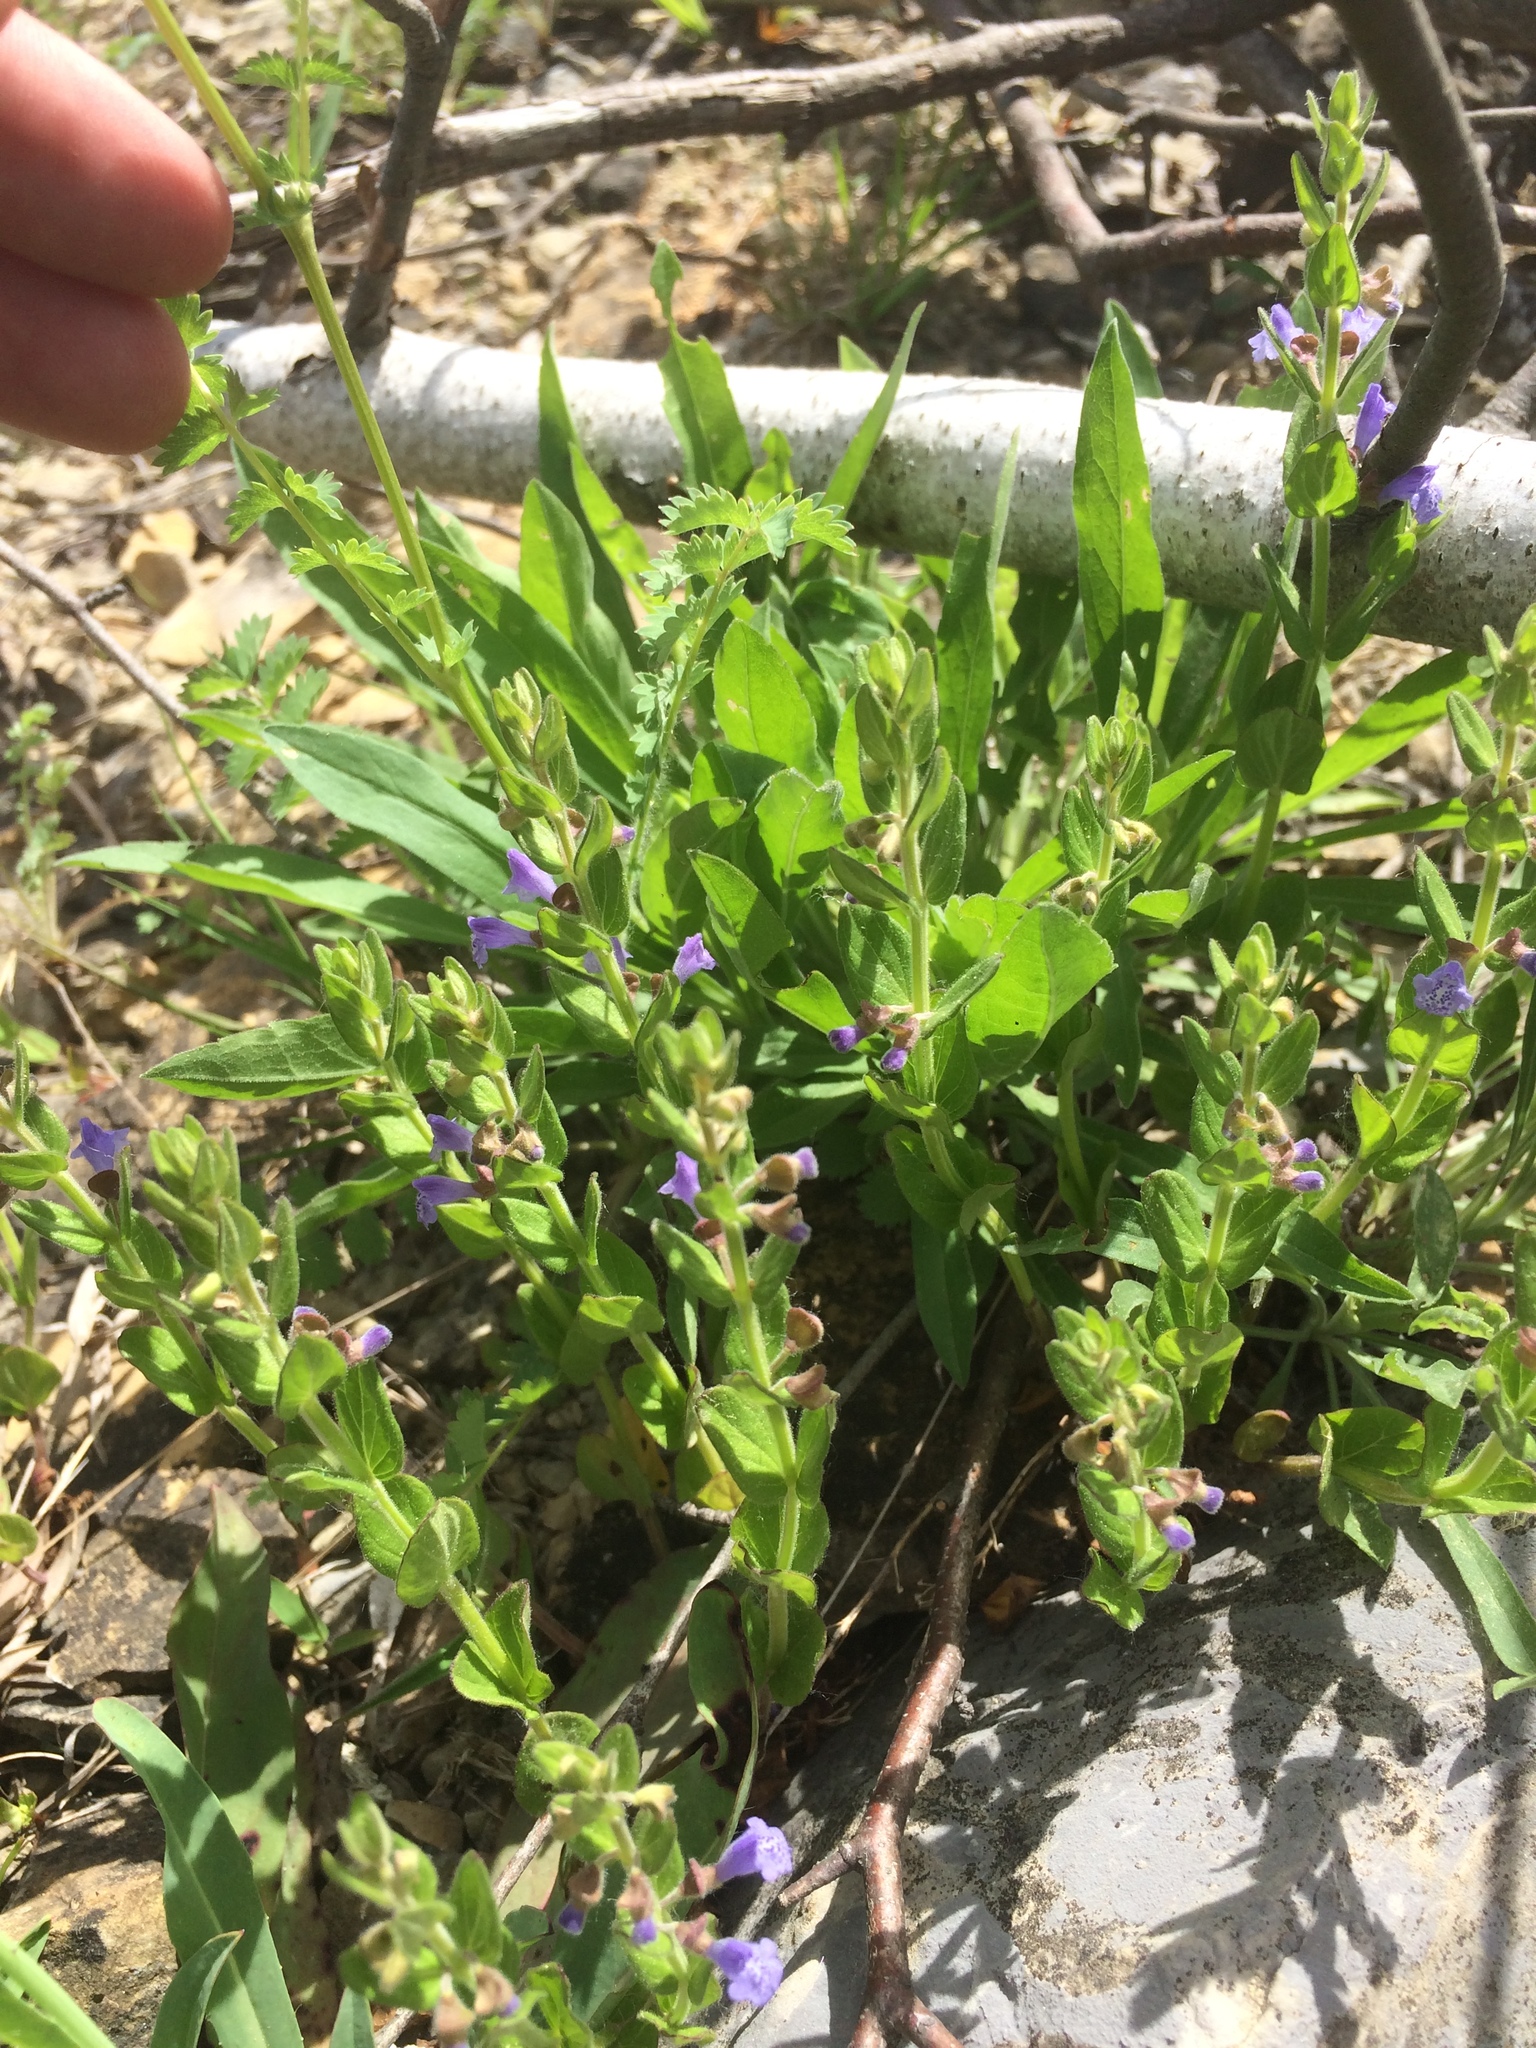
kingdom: Plantae
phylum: Tracheophyta
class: Magnoliopsida
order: Lamiales
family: Lamiaceae
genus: Scutellaria
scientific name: Scutellaria parvula
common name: Little scullcap
